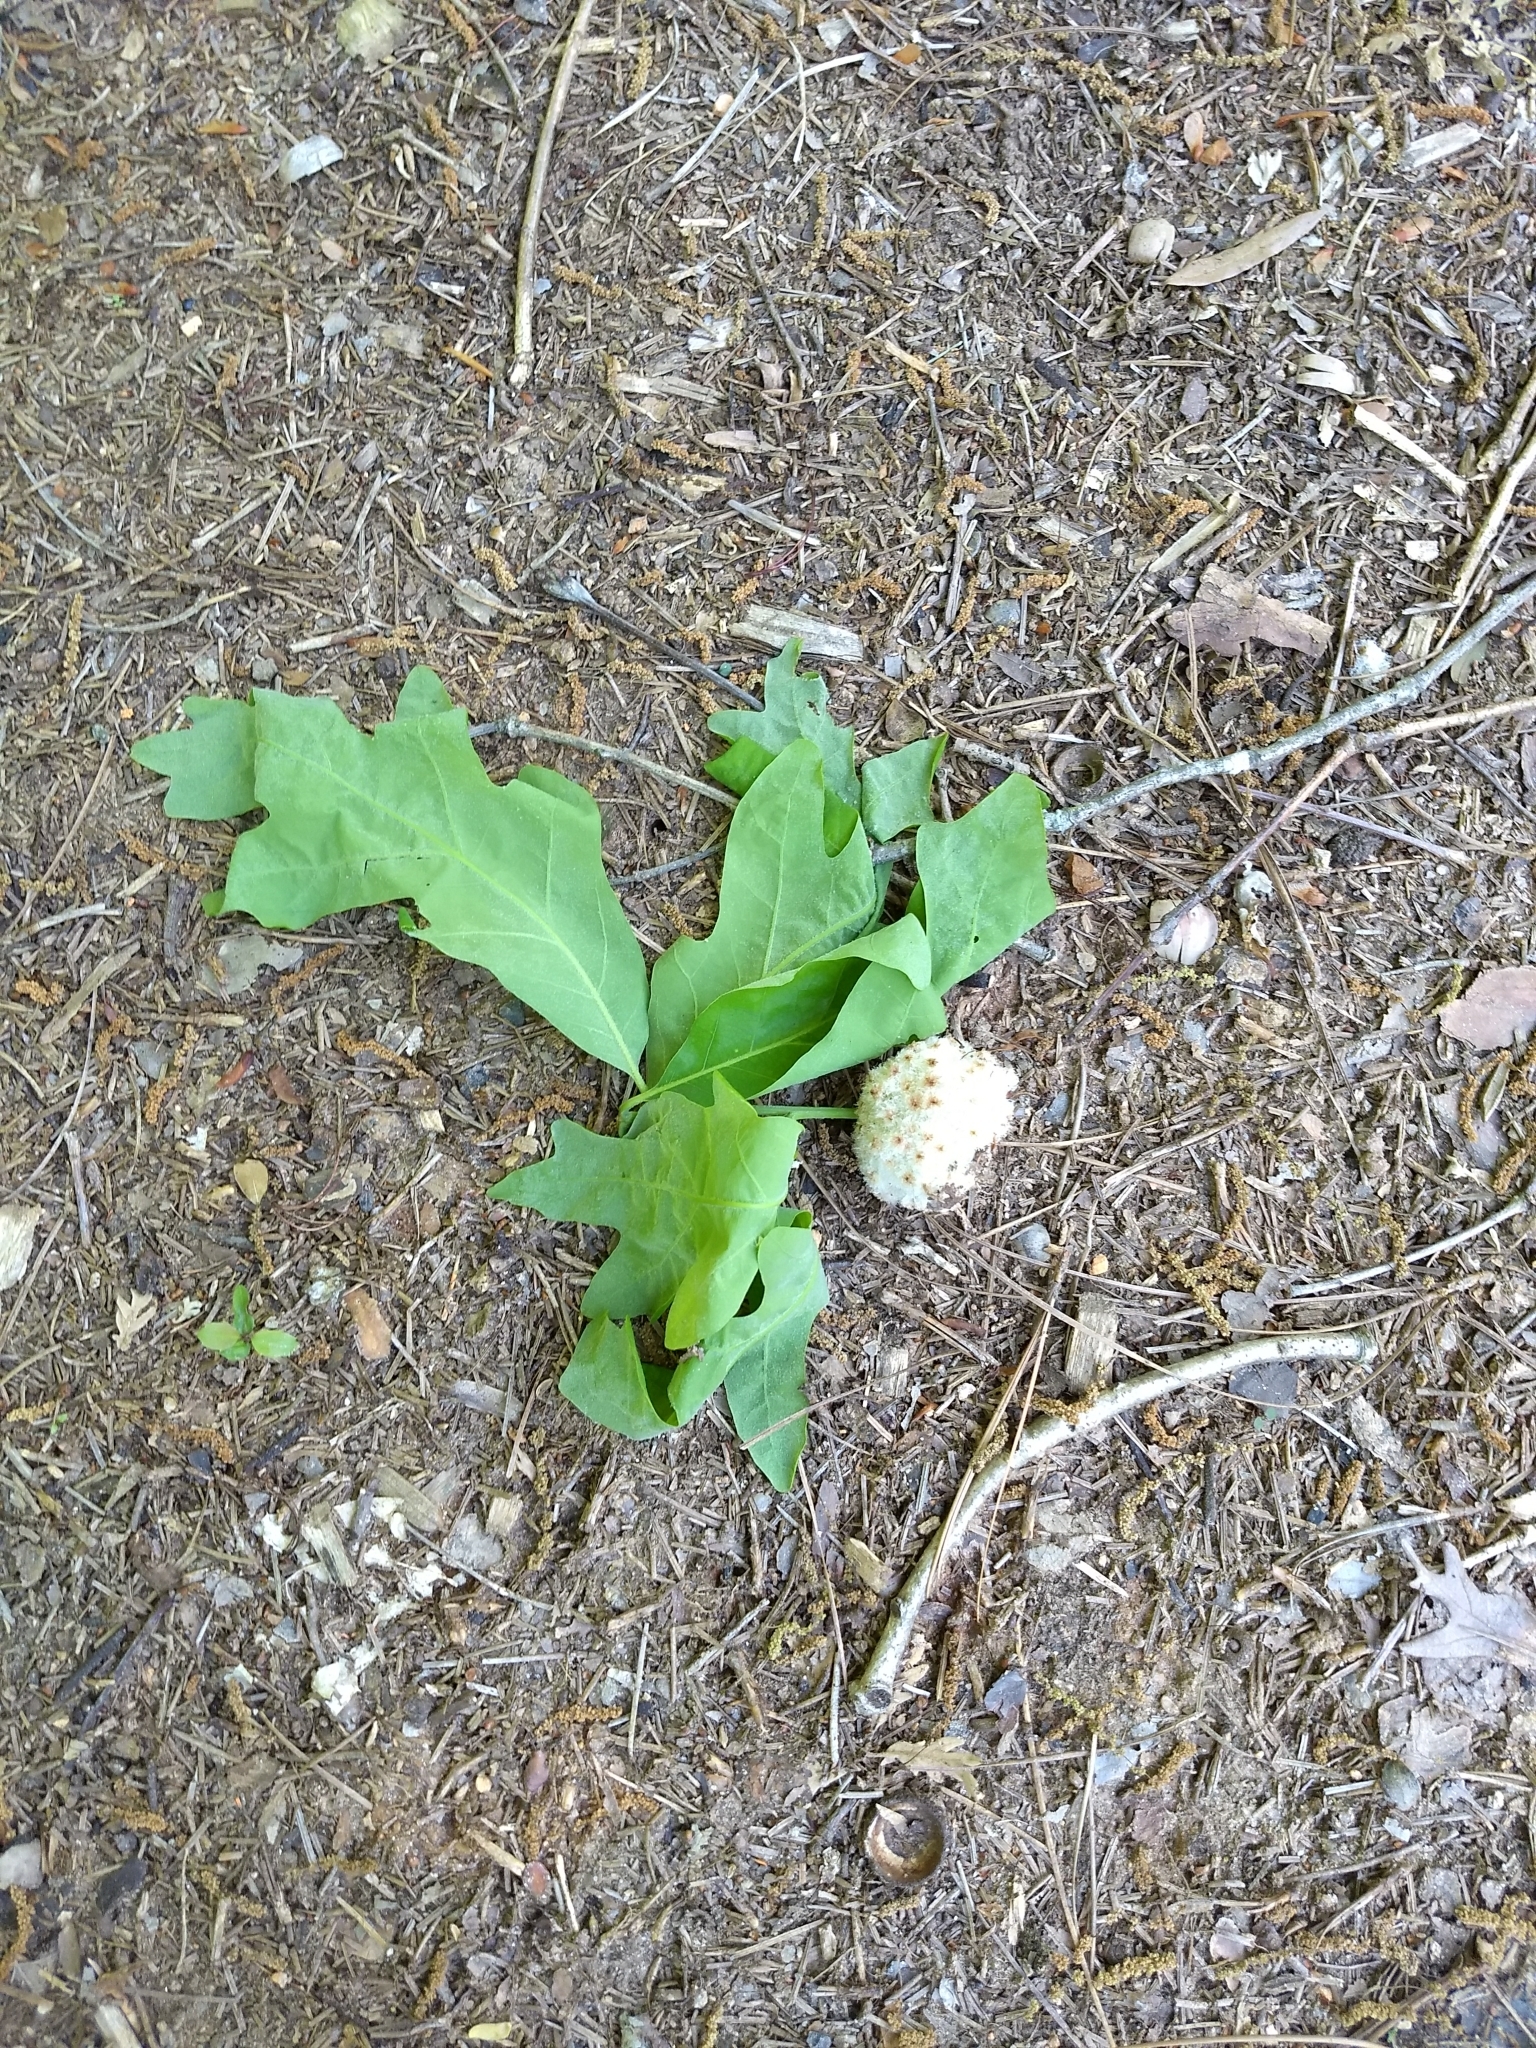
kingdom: Animalia
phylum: Arthropoda
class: Insecta
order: Hymenoptera
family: Cynipidae
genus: Callirhytis
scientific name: Callirhytis
